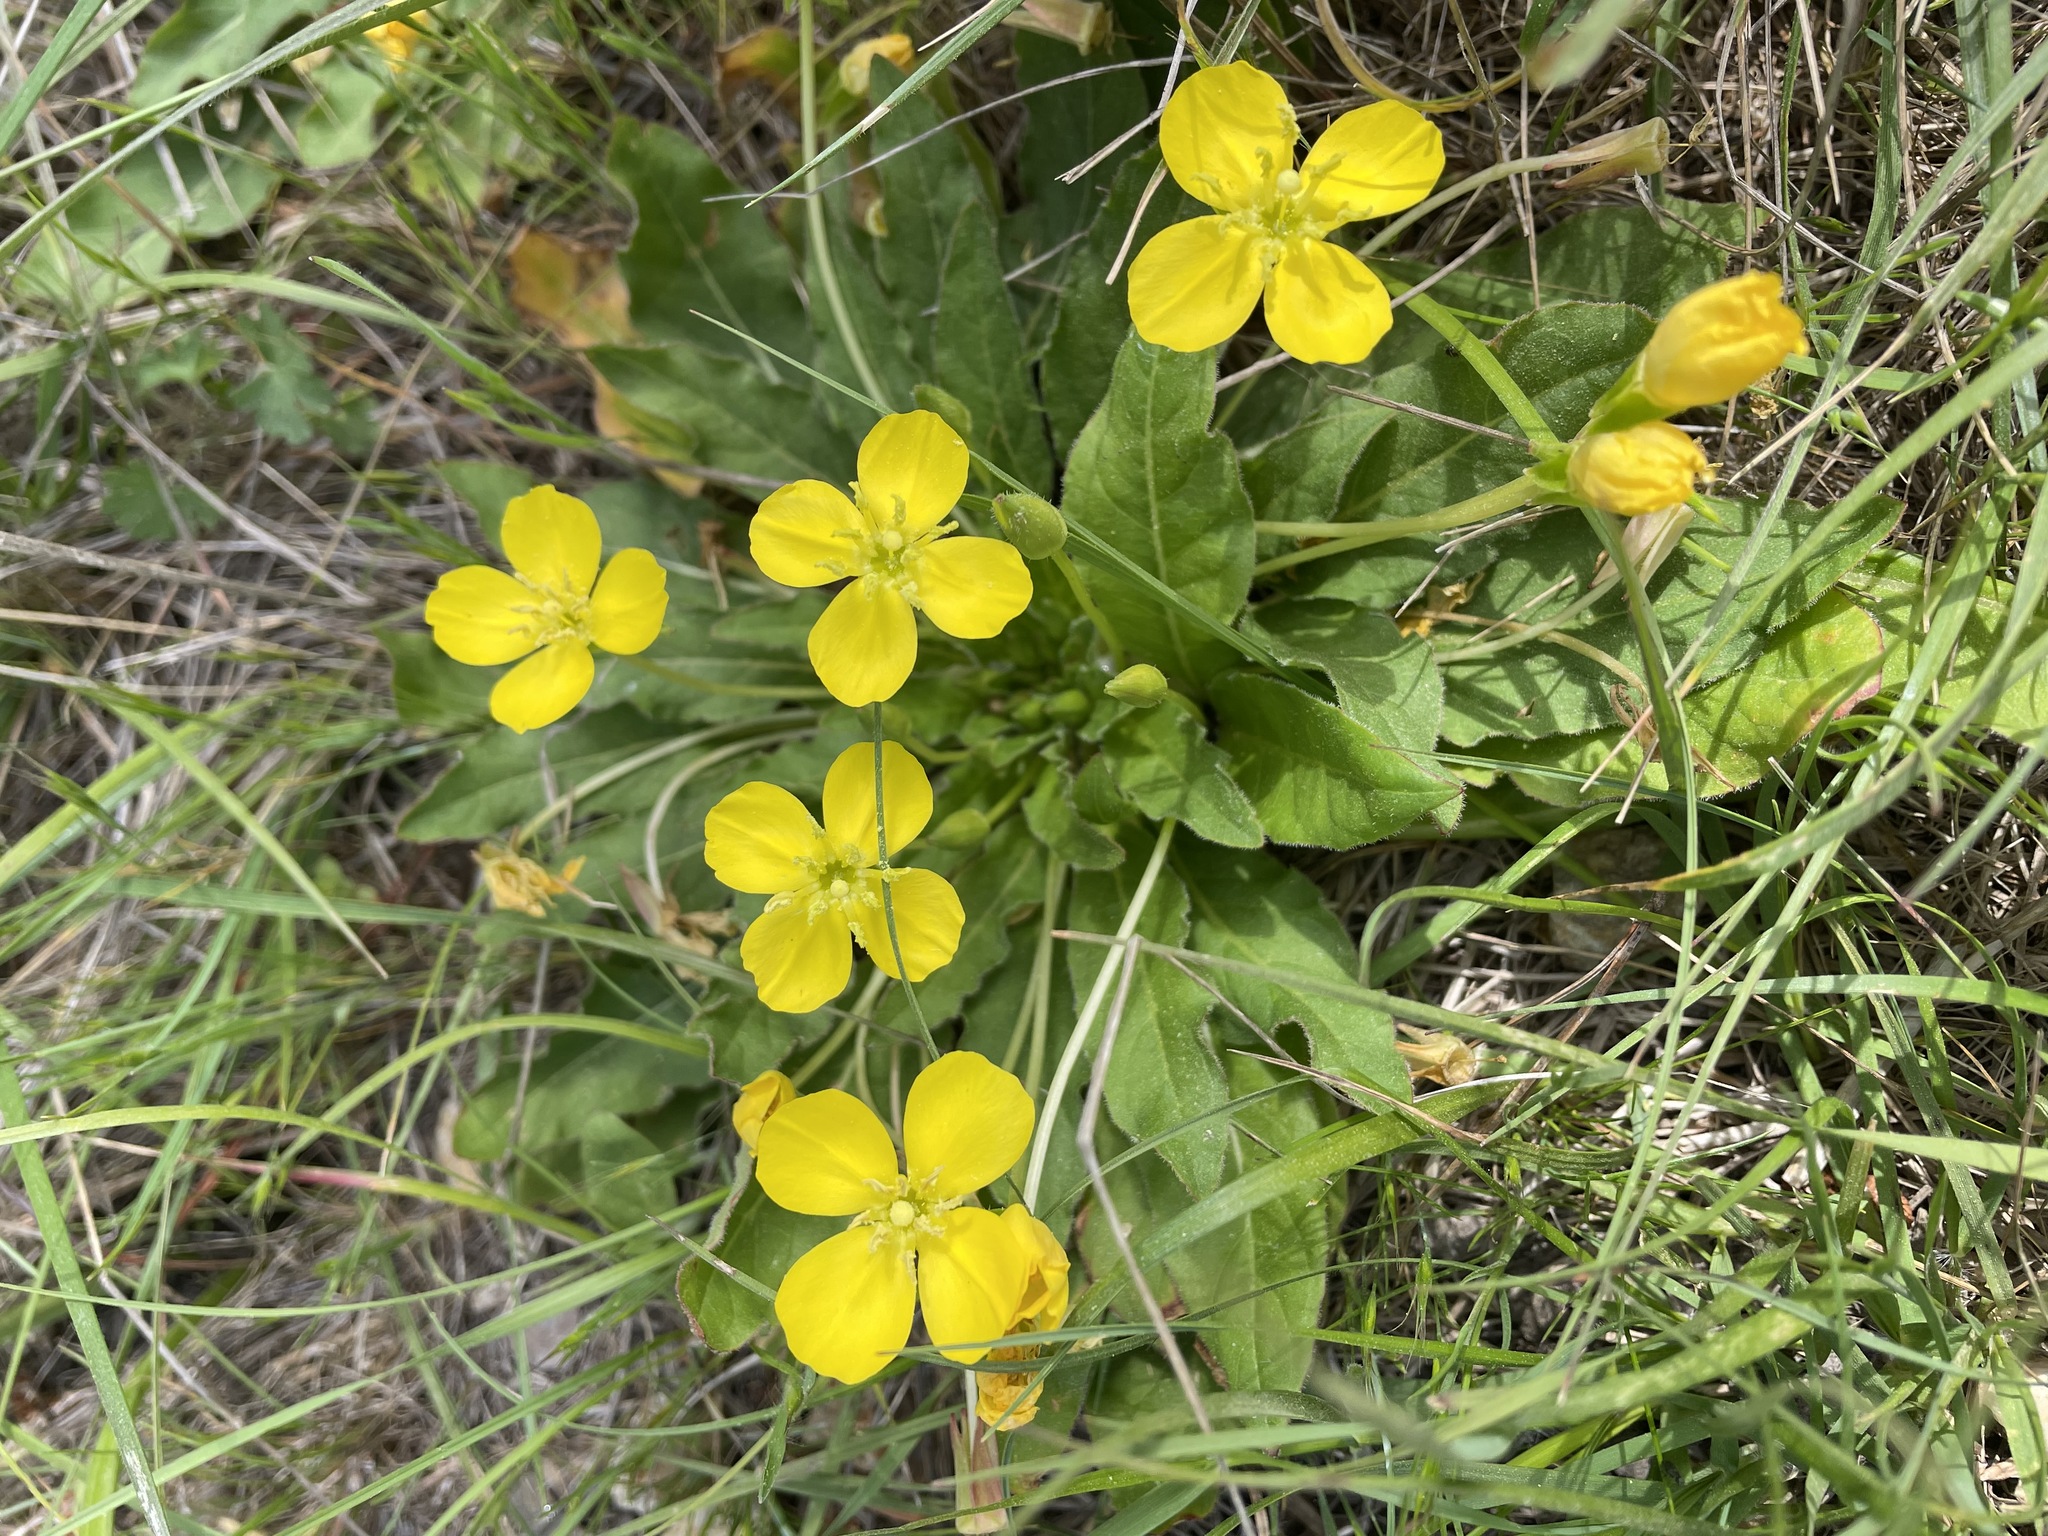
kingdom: Plantae
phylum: Tracheophyta
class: Magnoliopsida
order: Myrtales
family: Onagraceae
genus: Taraxia
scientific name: Taraxia ovata
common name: Goldeneggs
